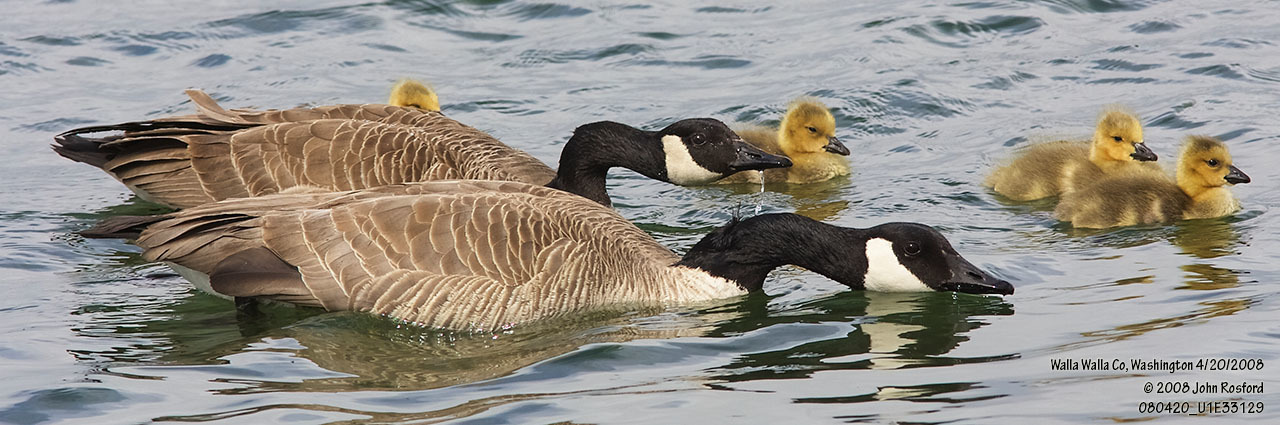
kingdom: Animalia
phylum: Chordata
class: Aves
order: Anseriformes
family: Anatidae
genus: Branta
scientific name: Branta canadensis
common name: Canada goose
